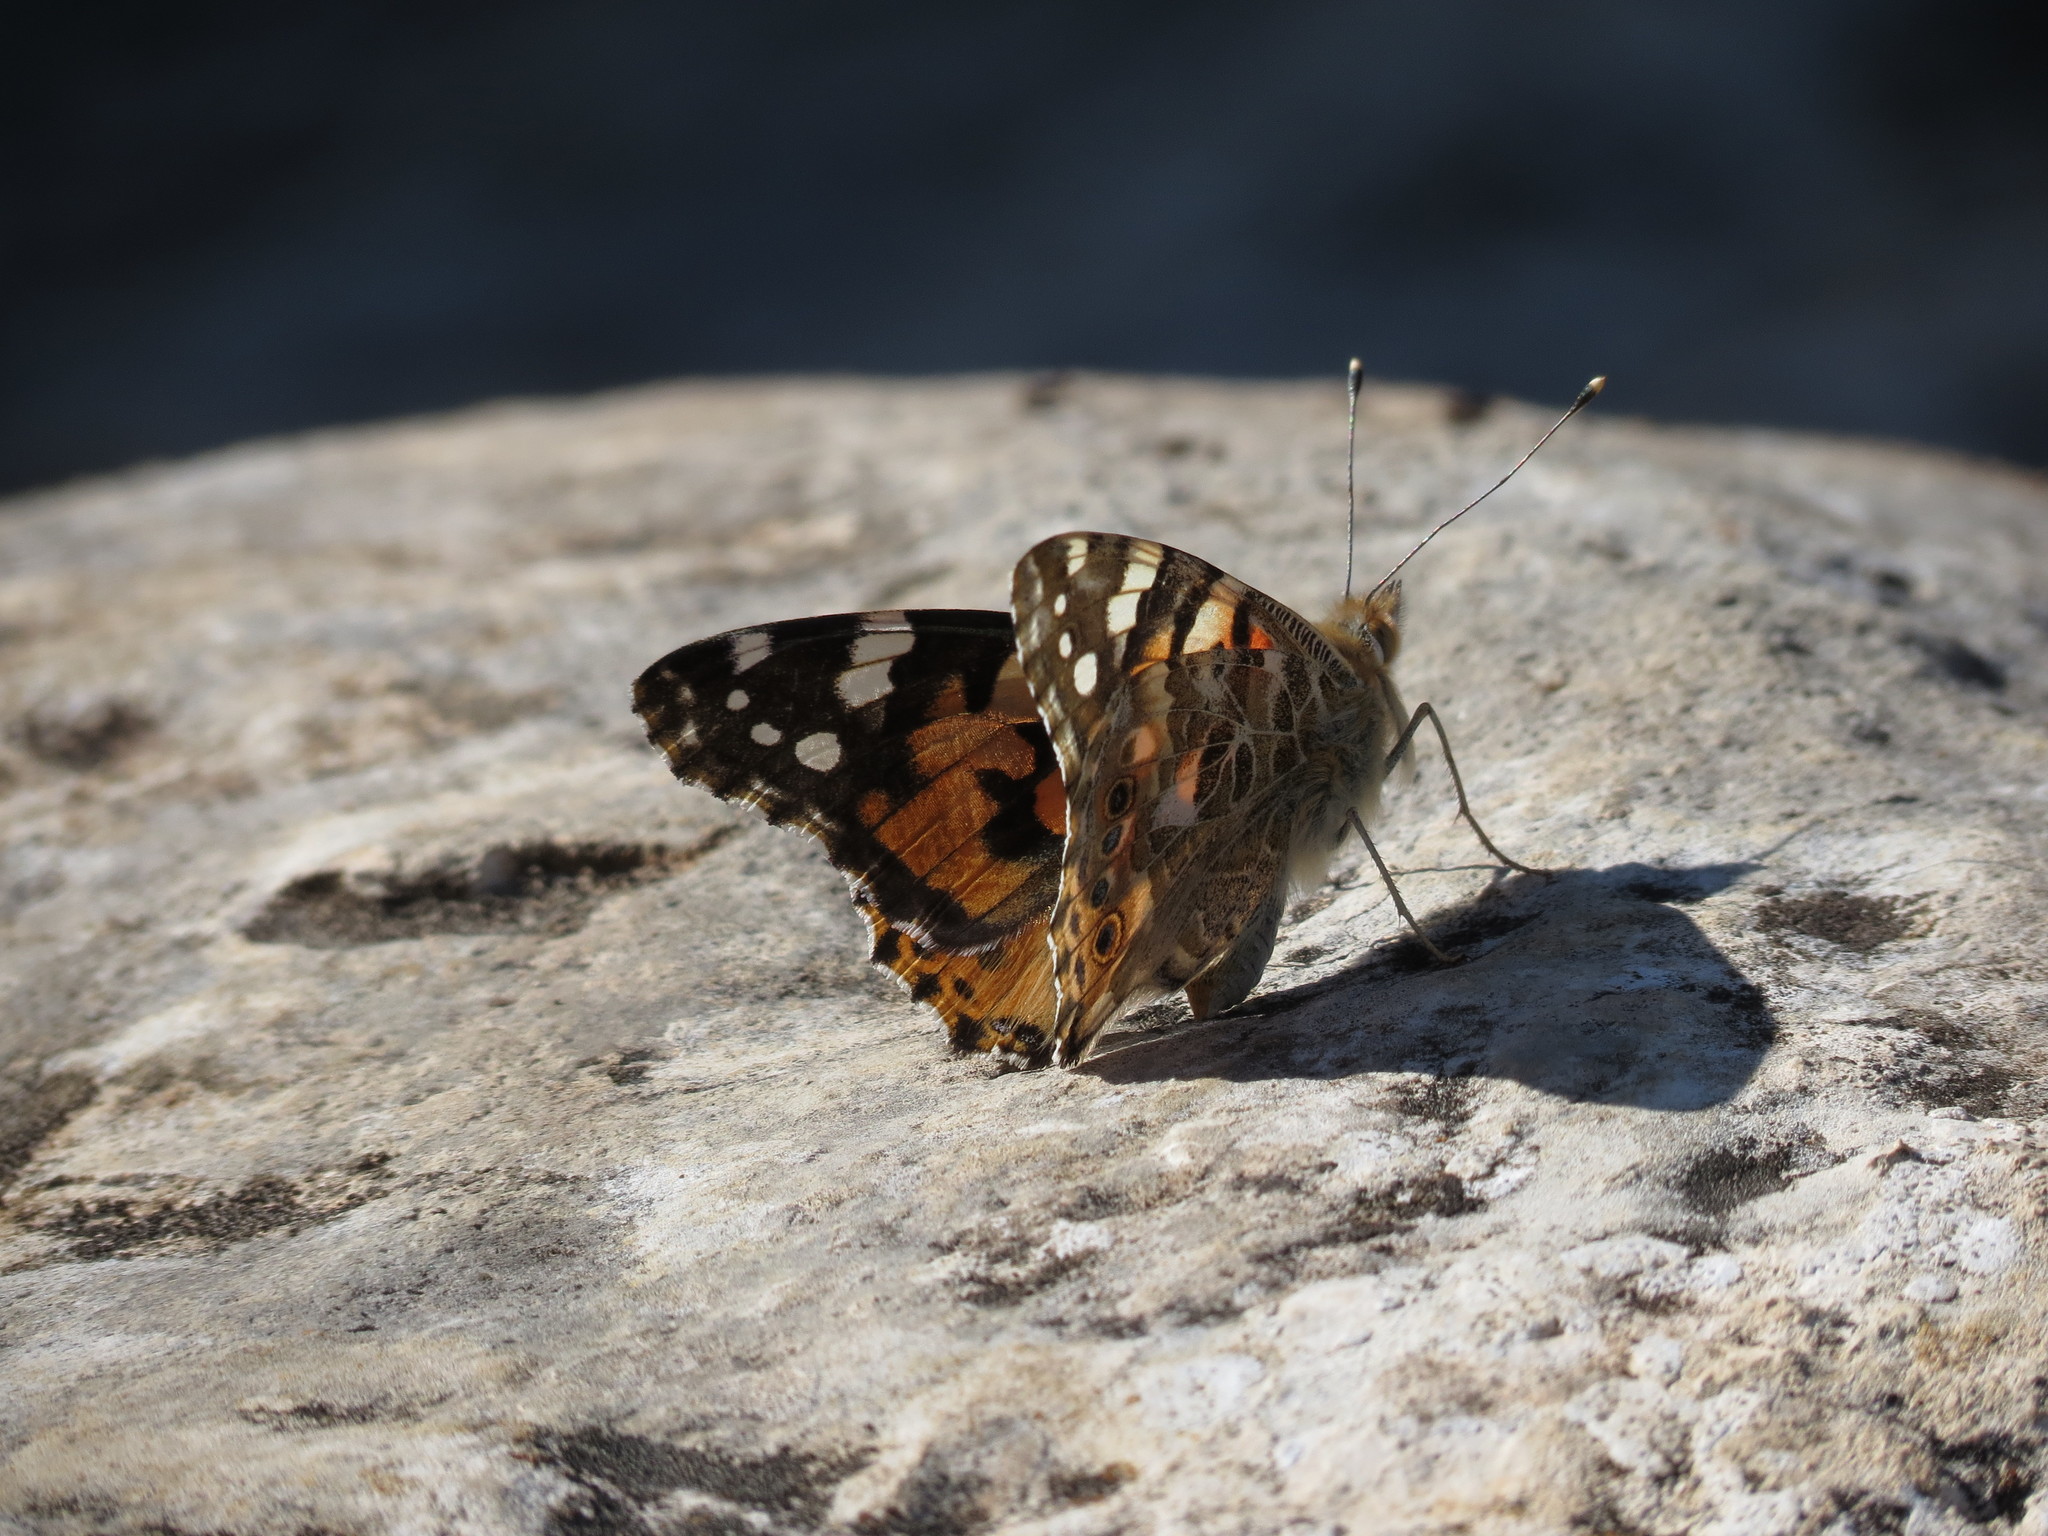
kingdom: Animalia
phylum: Arthropoda
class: Insecta
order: Lepidoptera
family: Nymphalidae
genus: Vanessa
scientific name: Vanessa cardui
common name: Painted lady
